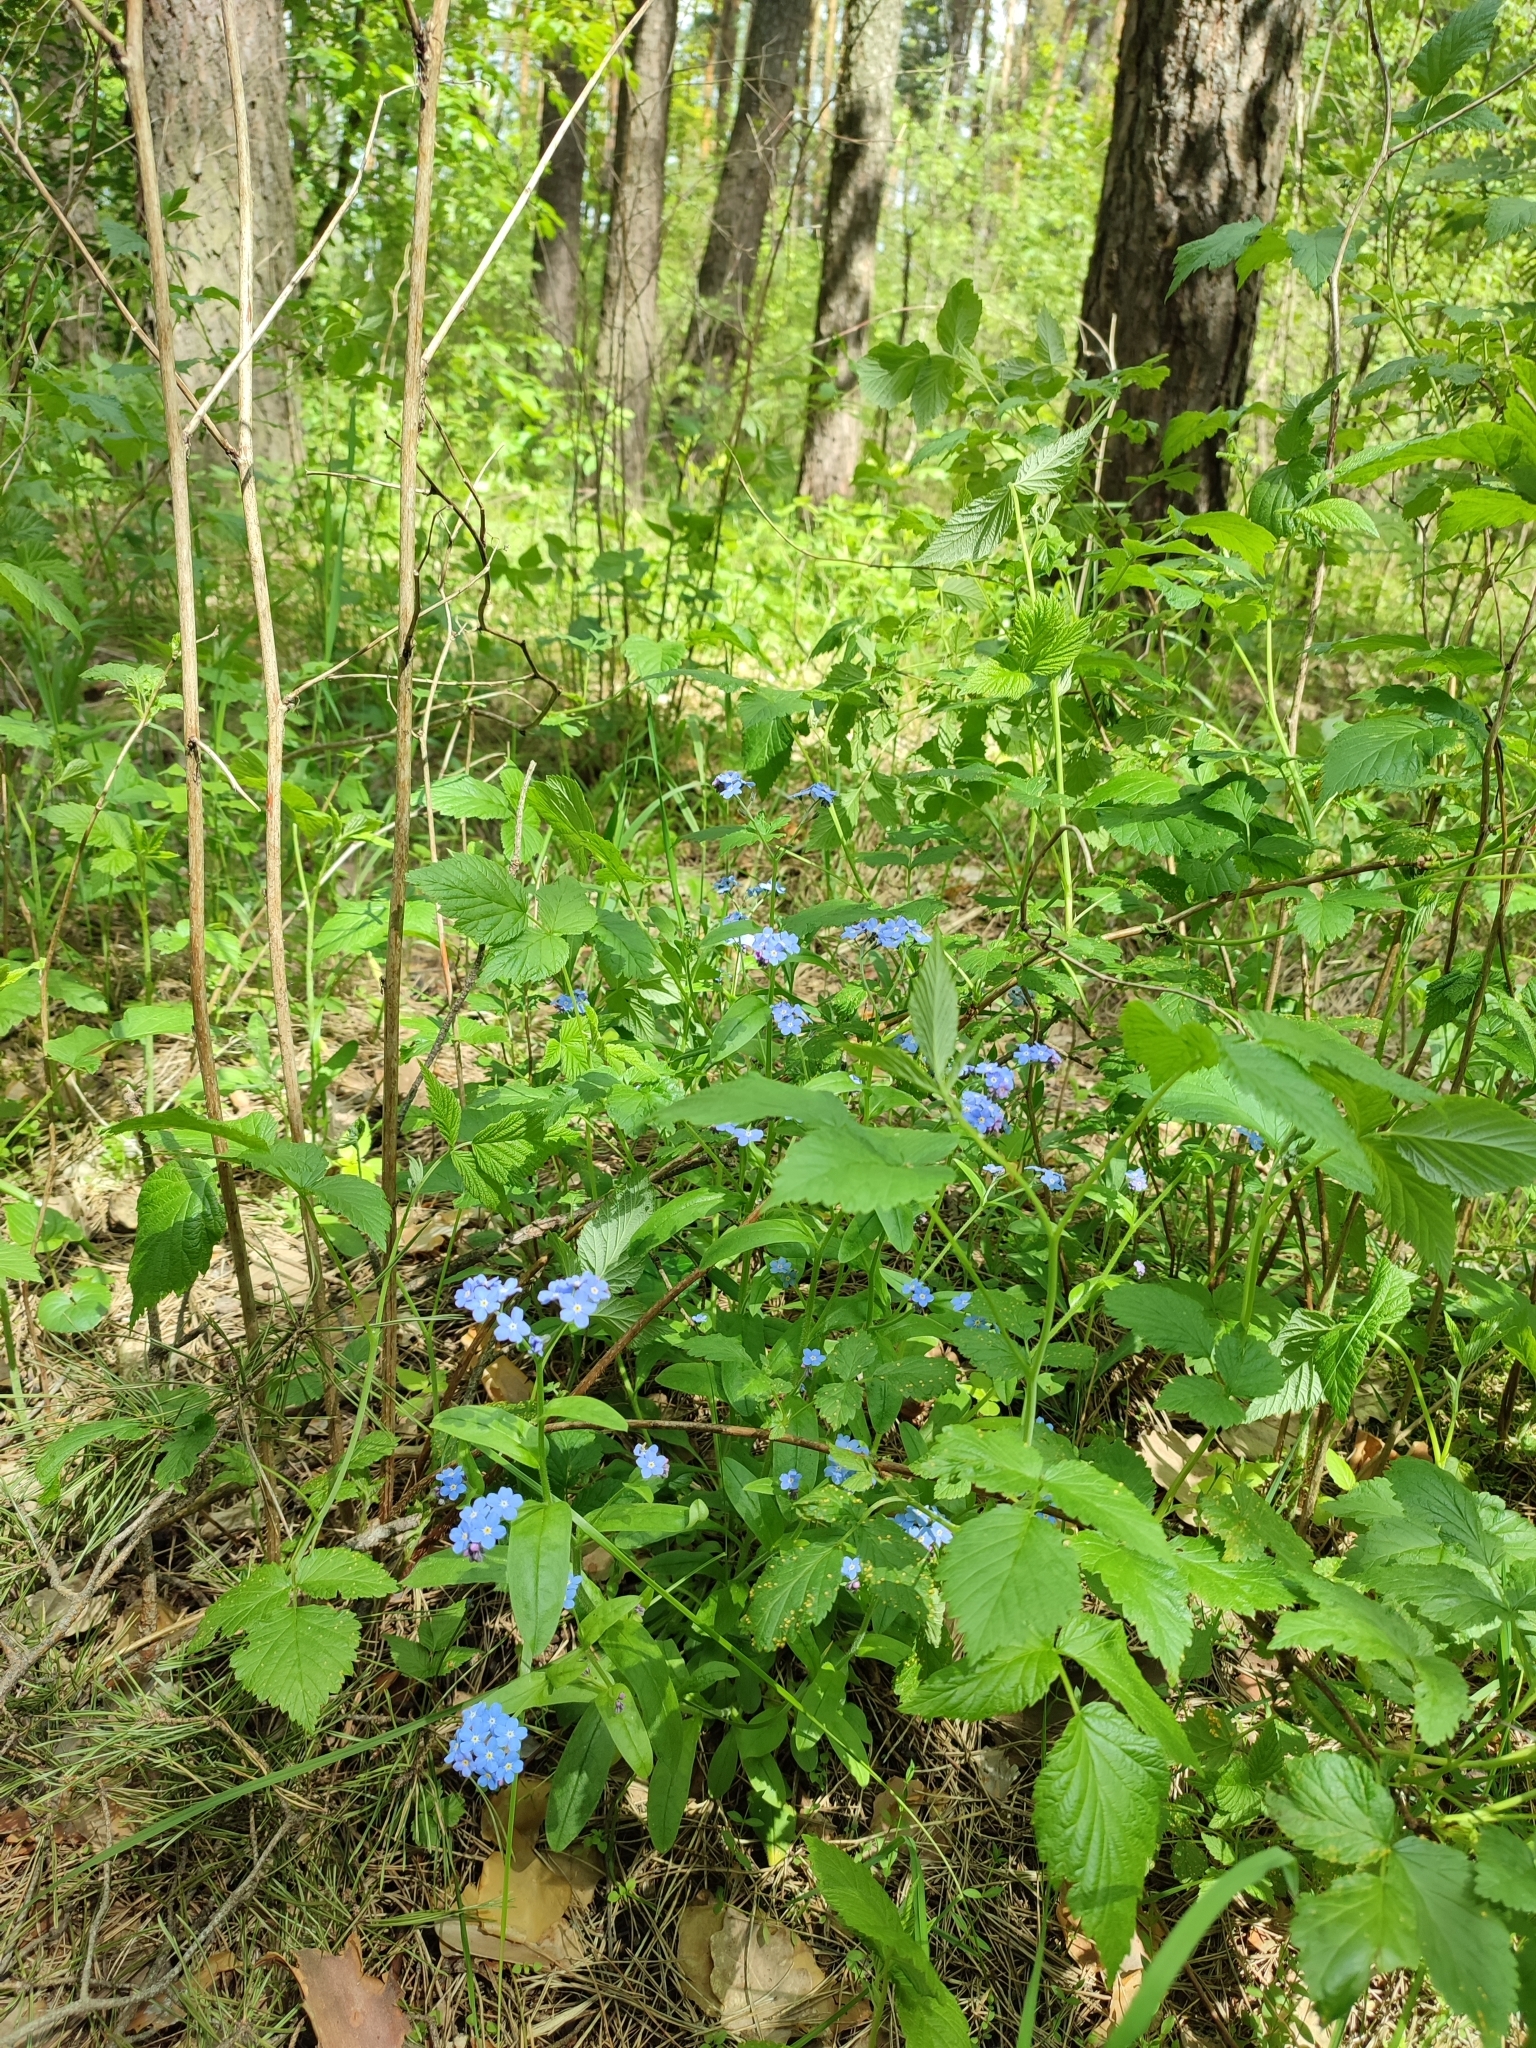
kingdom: Plantae
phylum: Tracheophyta
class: Magnoliopsida
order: Boraginales
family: Boraginaceae
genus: Myosotis
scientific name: Myosotis sylvatica
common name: Wood forget-me-not
